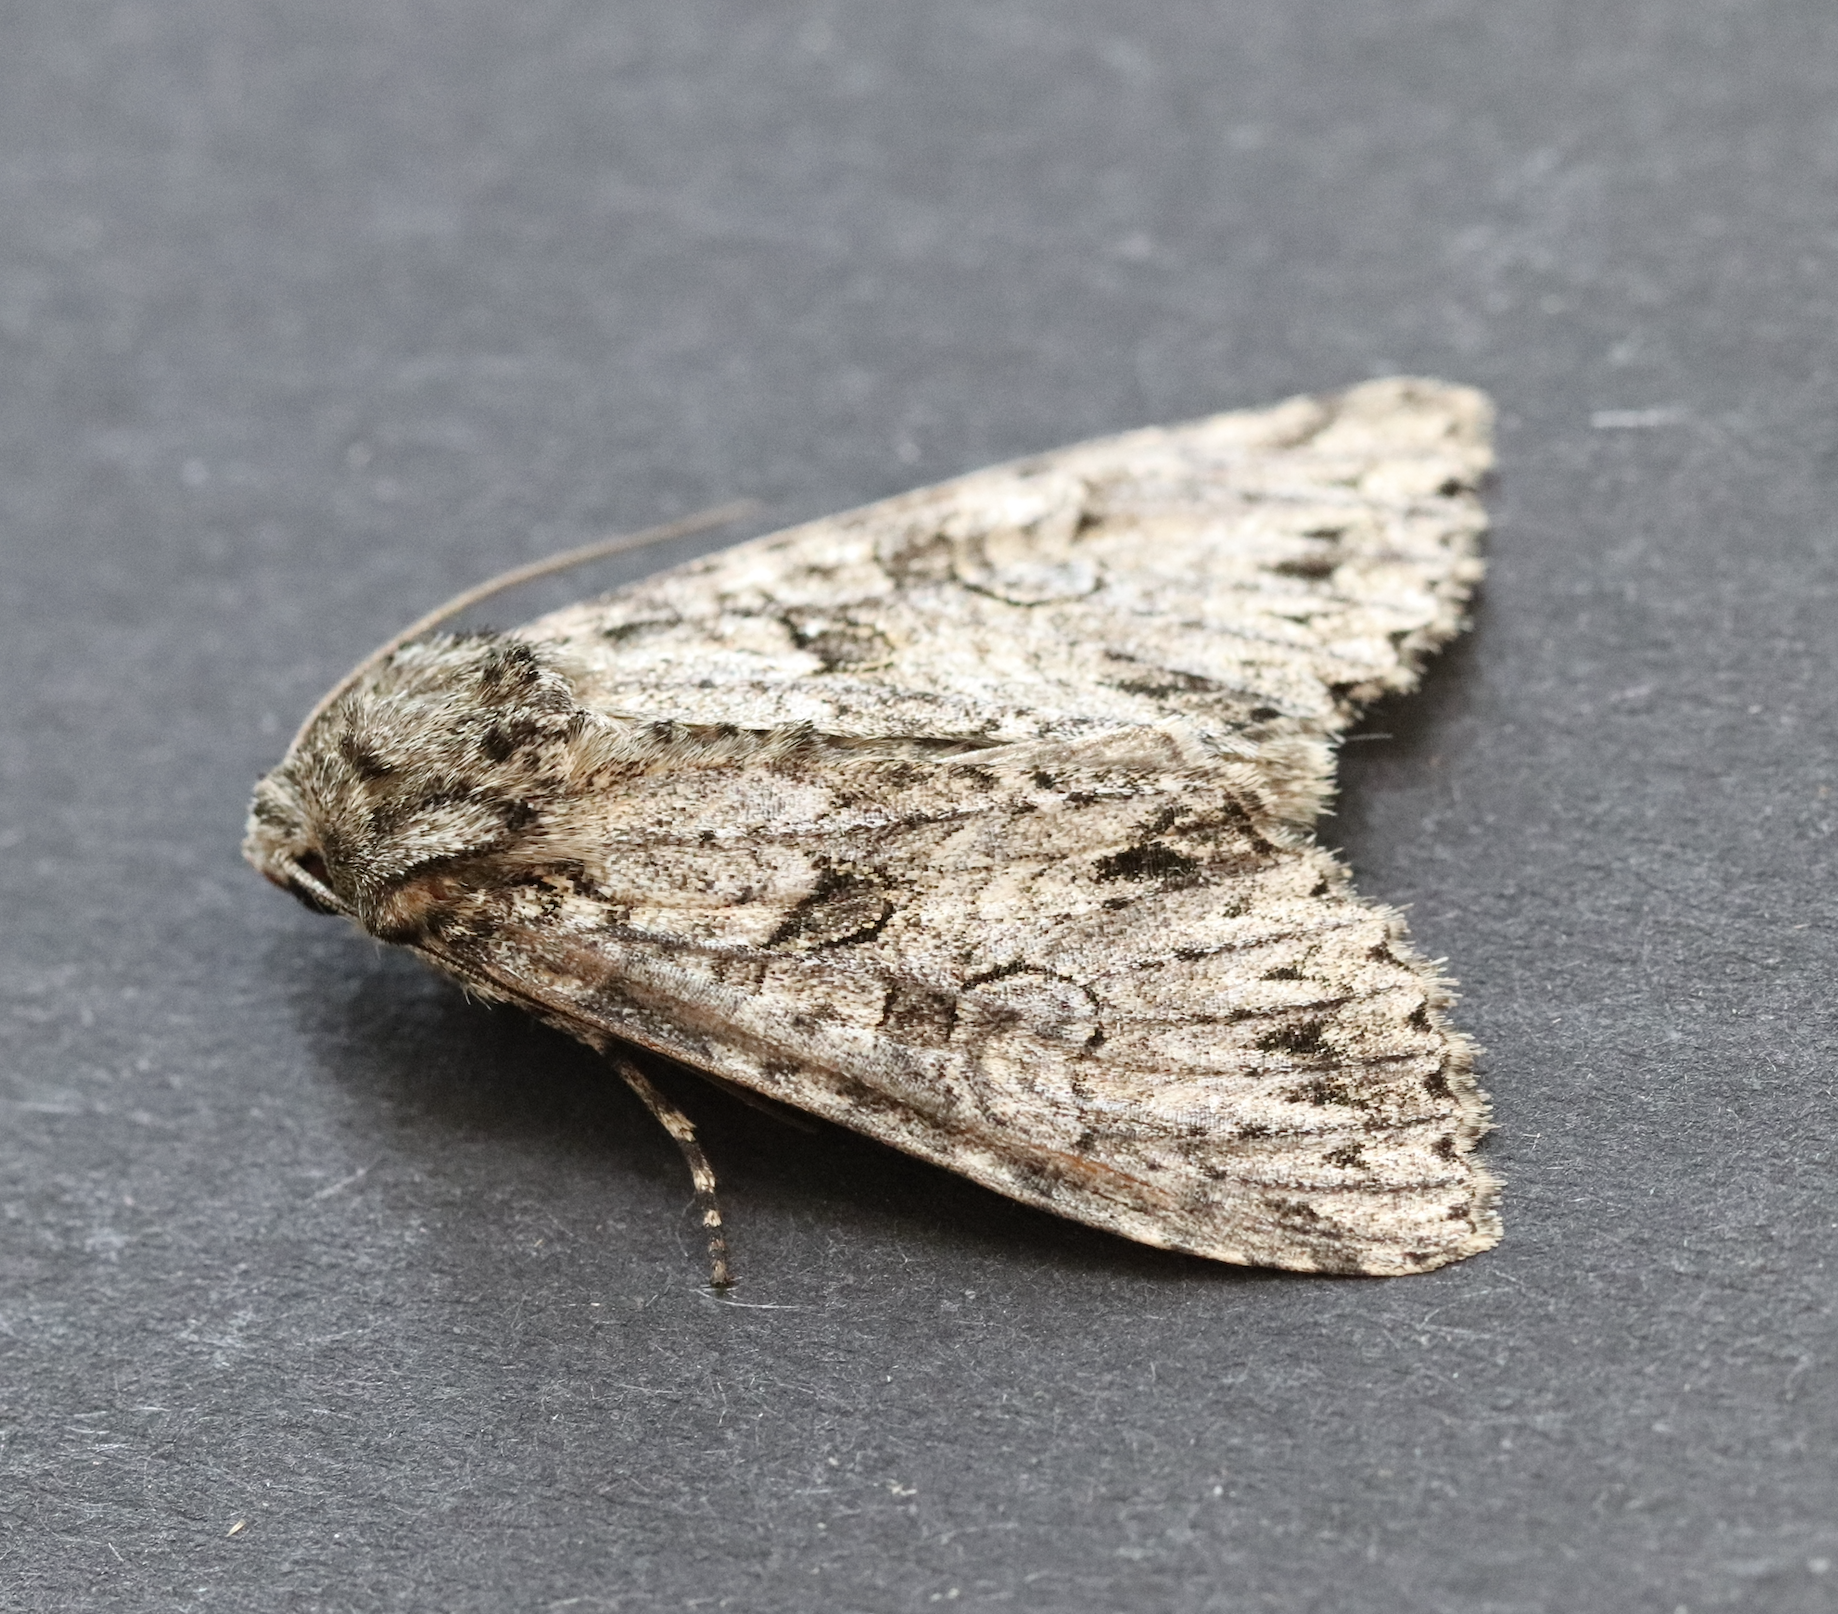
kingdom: Animalia
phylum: Arthropoda
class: Insecta
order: Lepidoptera
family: Noctuidae
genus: Polia
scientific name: Polia nebulosa
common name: Grey arches
